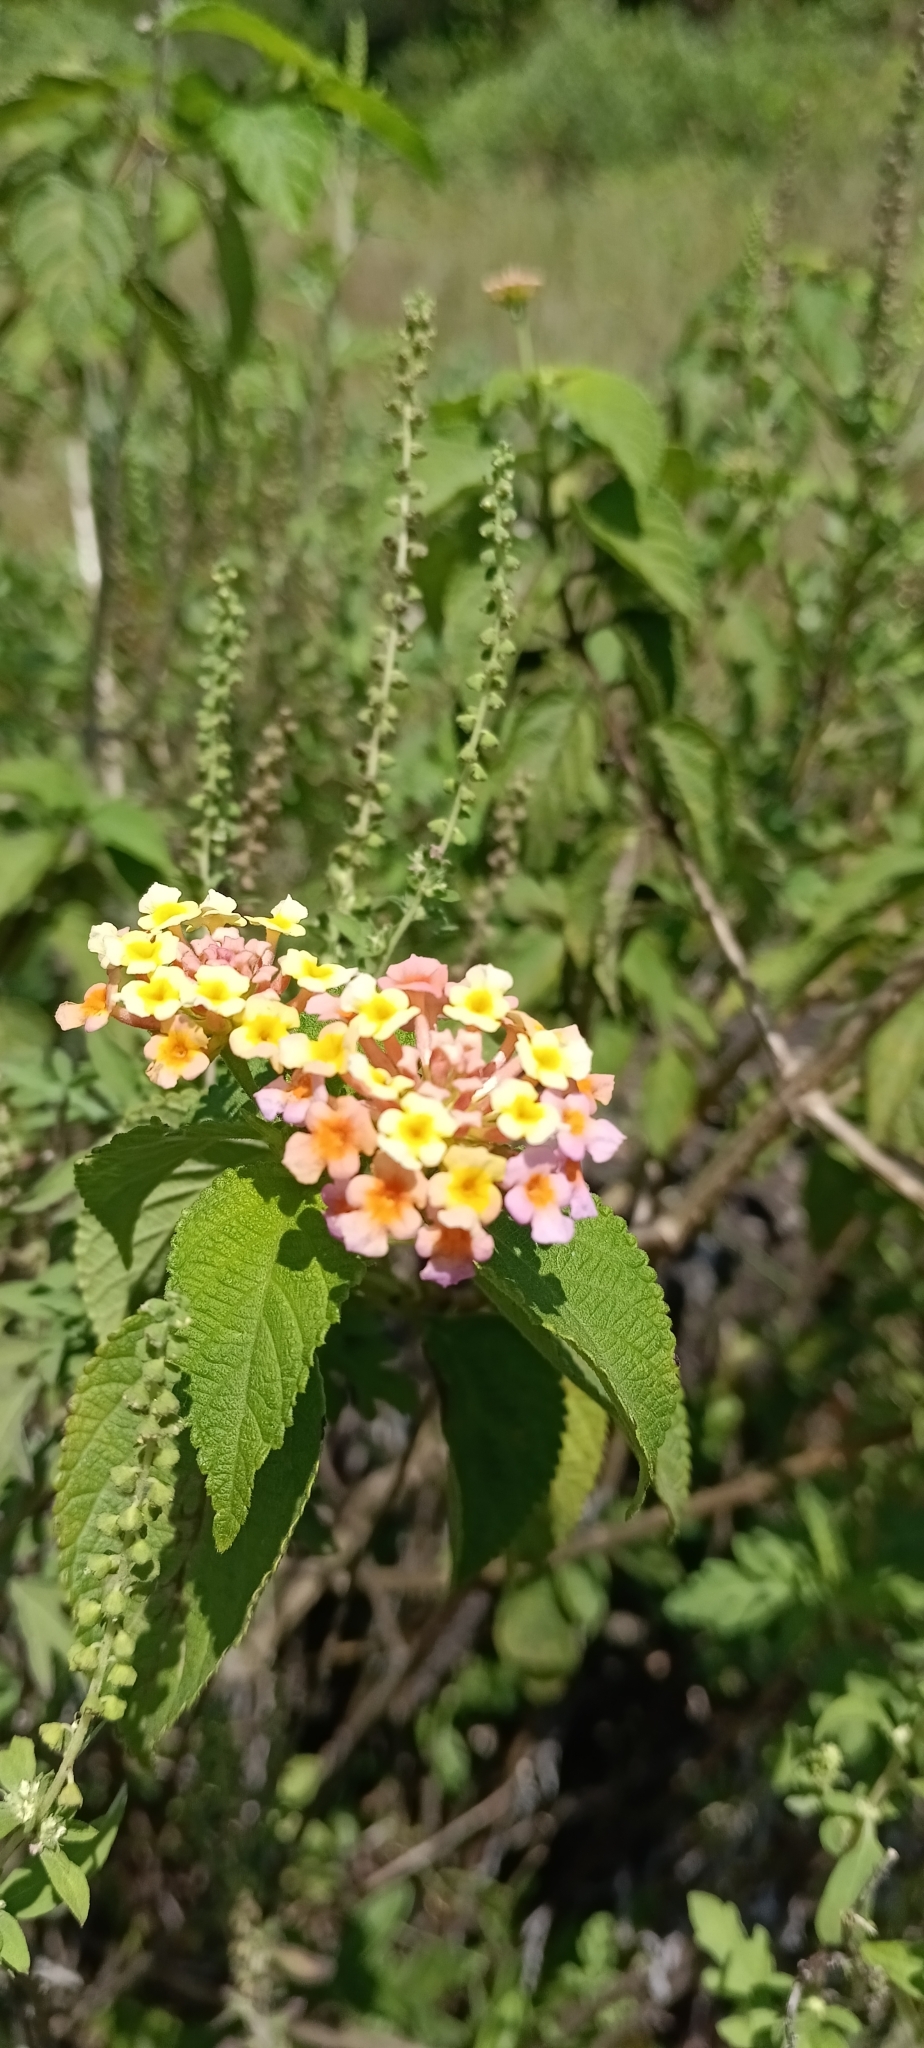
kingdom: Plantae
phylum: Tracheophyta
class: Magnoliopsida
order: Lamiales
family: Verbenaceae
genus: Lantana
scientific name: Lantana camara
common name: Lantana
